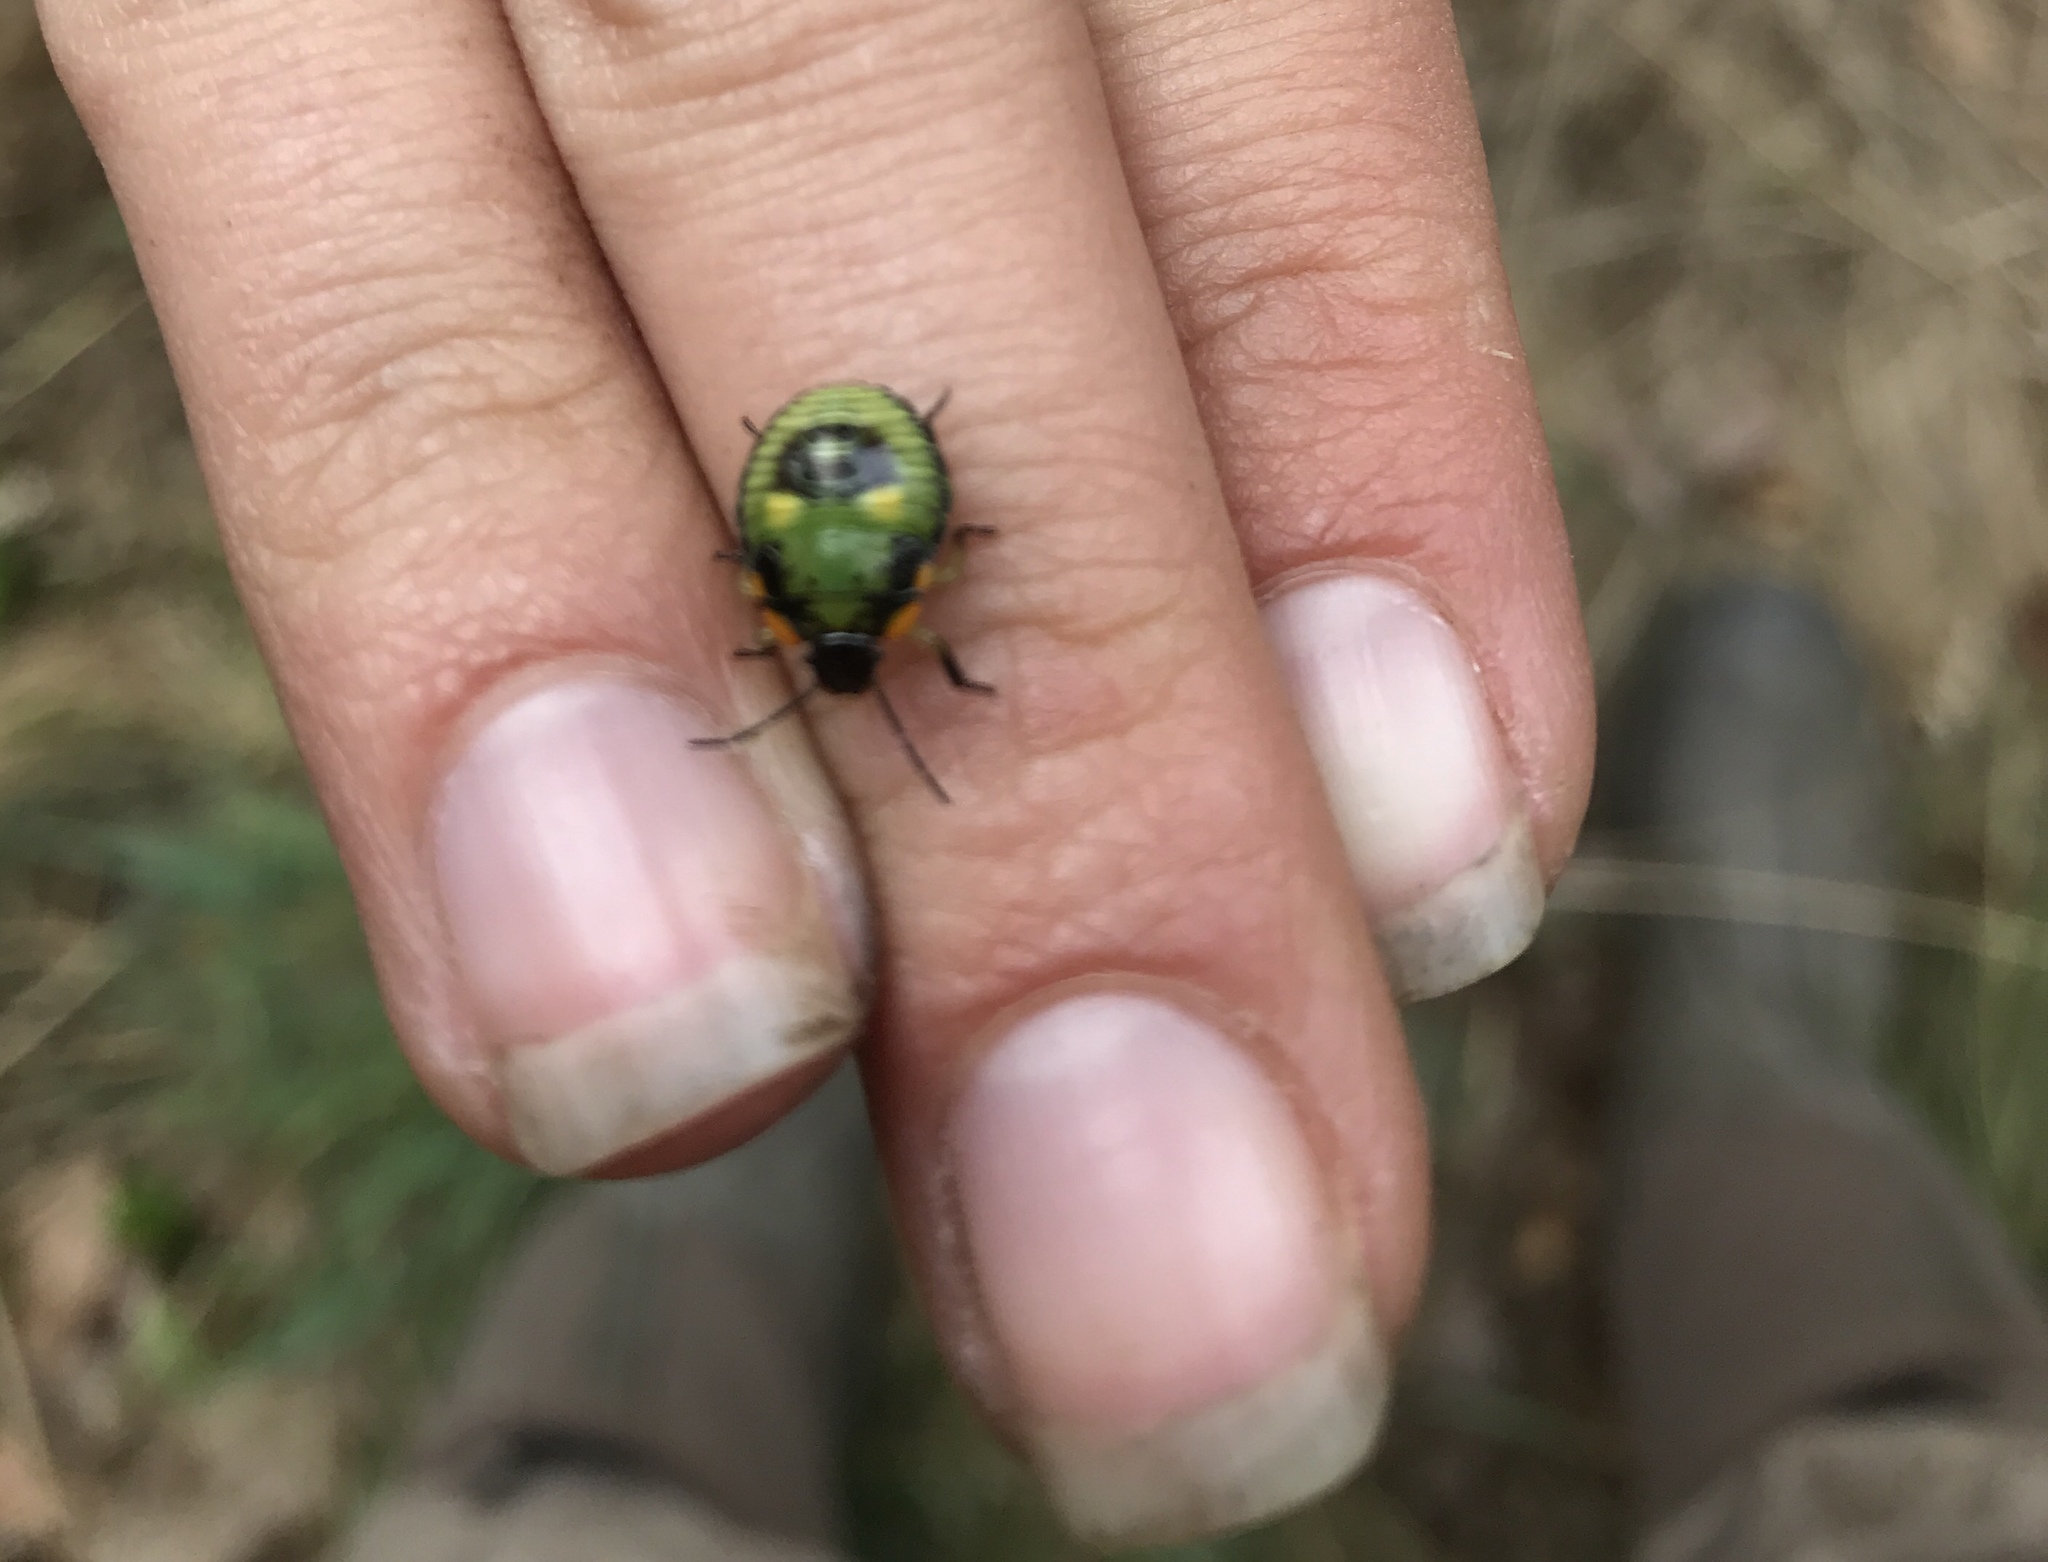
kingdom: Animalia
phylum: Arthropoda
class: Insecta
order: Hemiptera
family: Pentatomidae
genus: Chinavia
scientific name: Chinavia hilaris
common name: Green stink bug
